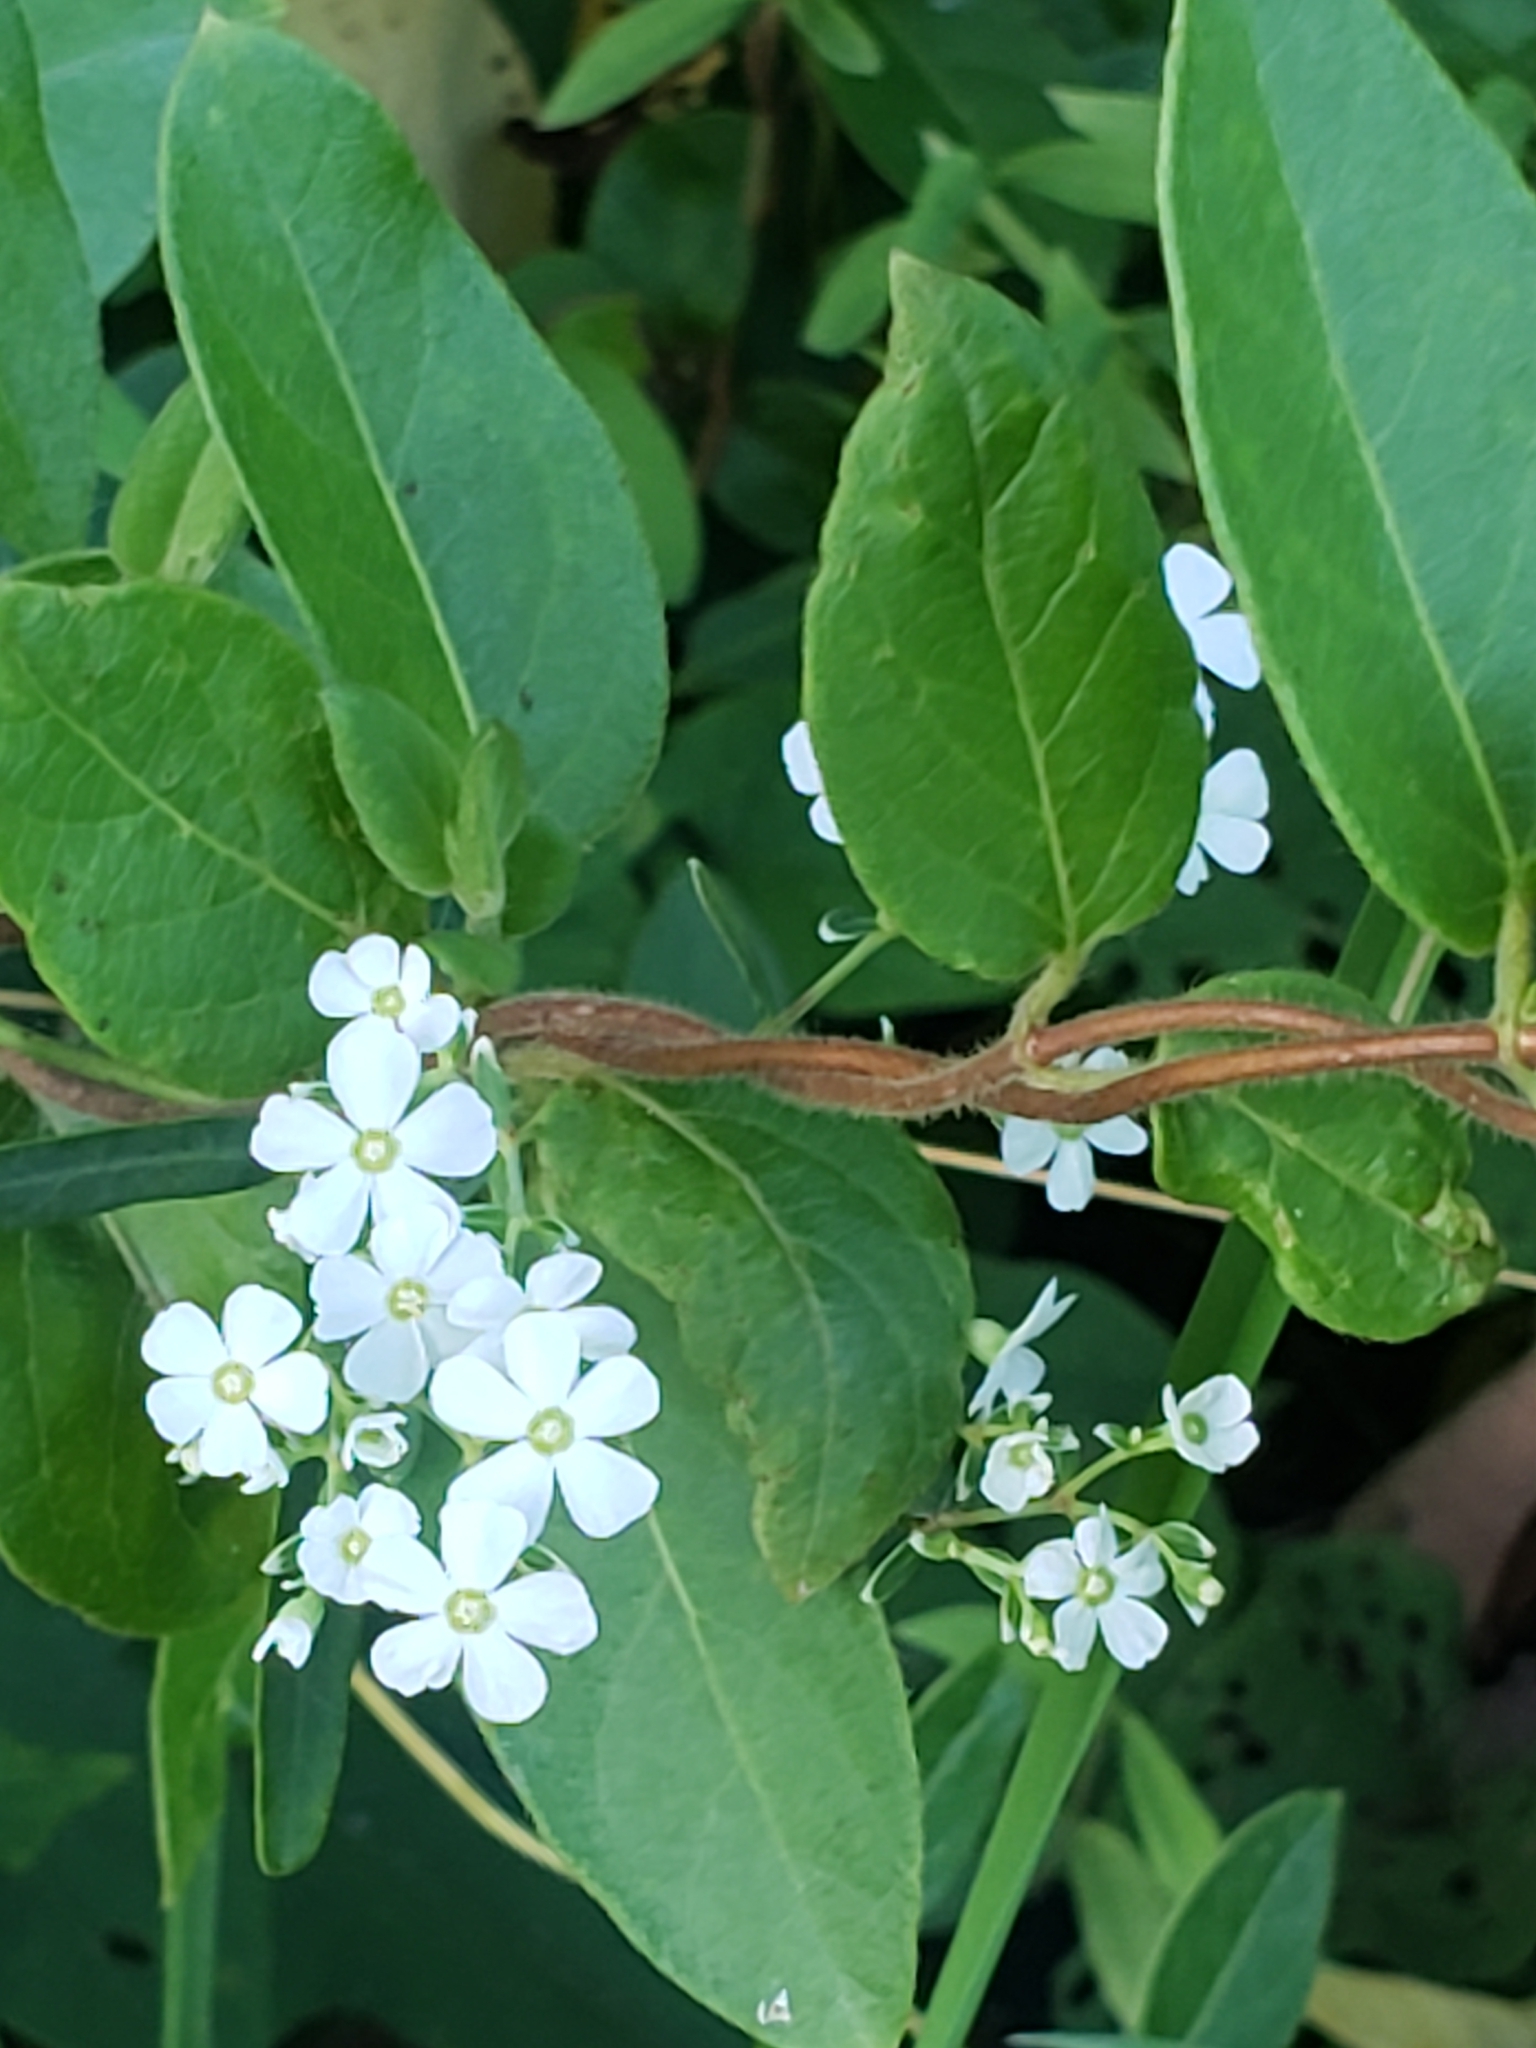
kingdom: Plantae
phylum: Tracheophyta
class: Magnoliopsida
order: Malpighiales
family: Euphorbiaceae
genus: Euphorbia
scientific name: Euphorbia corollata
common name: Flowering spurge
